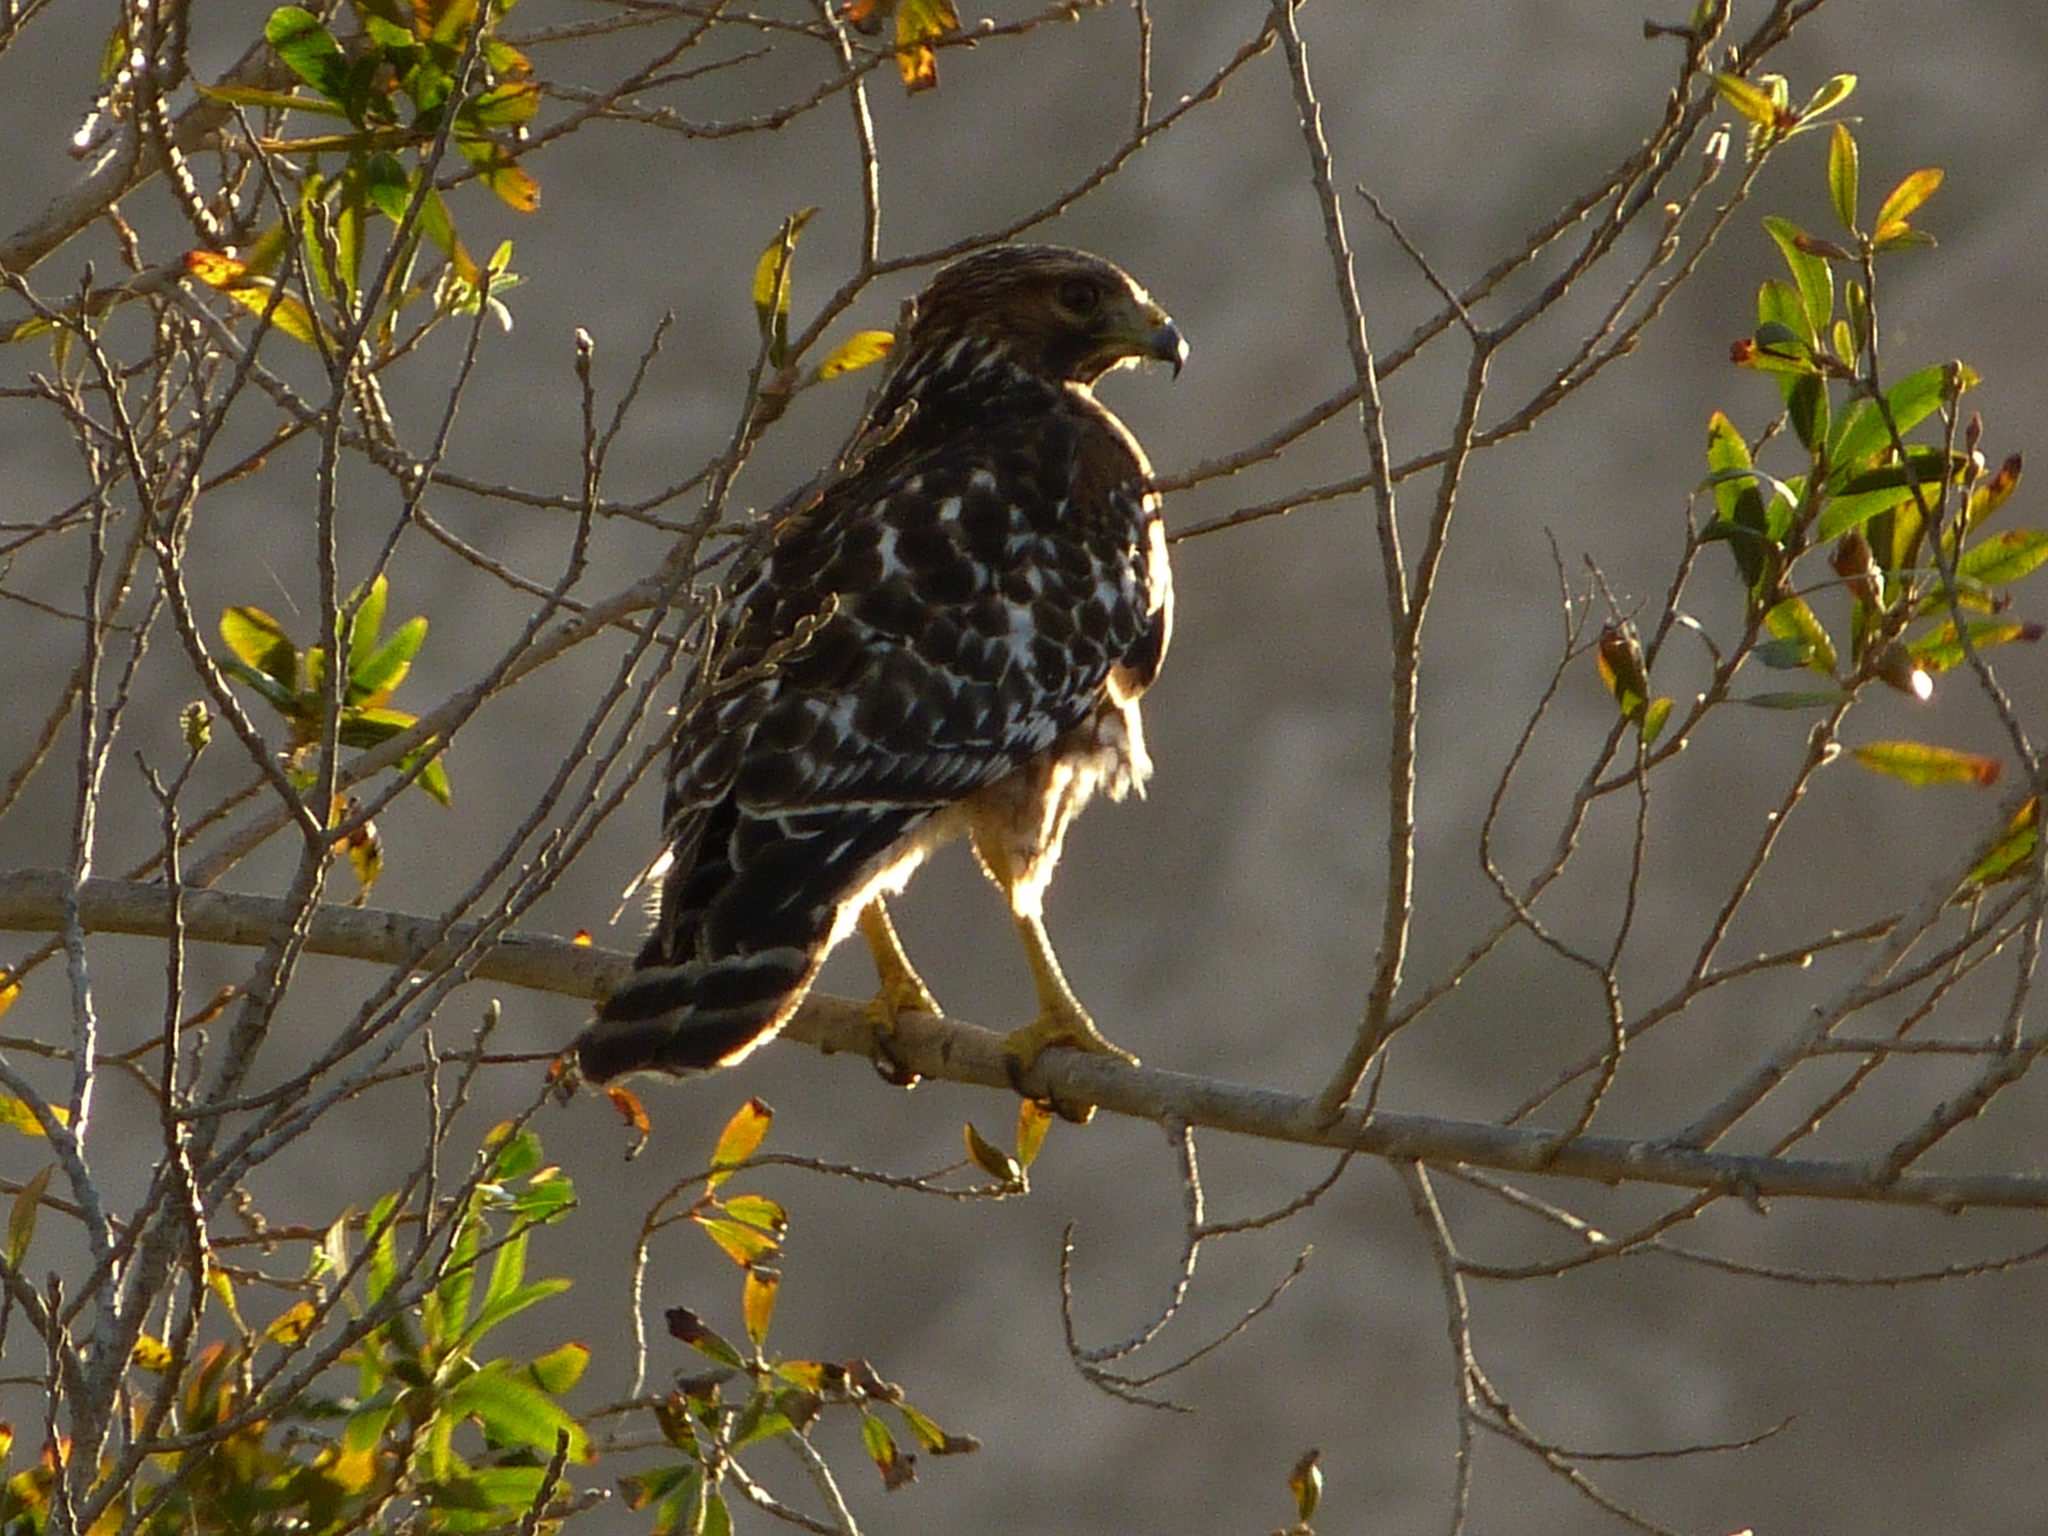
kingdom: Animalia
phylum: Chordata
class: Aves
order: Accipitriformes
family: Accipitridae
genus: Buteo
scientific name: Buteo lineatus
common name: Red-shouldered hawk
